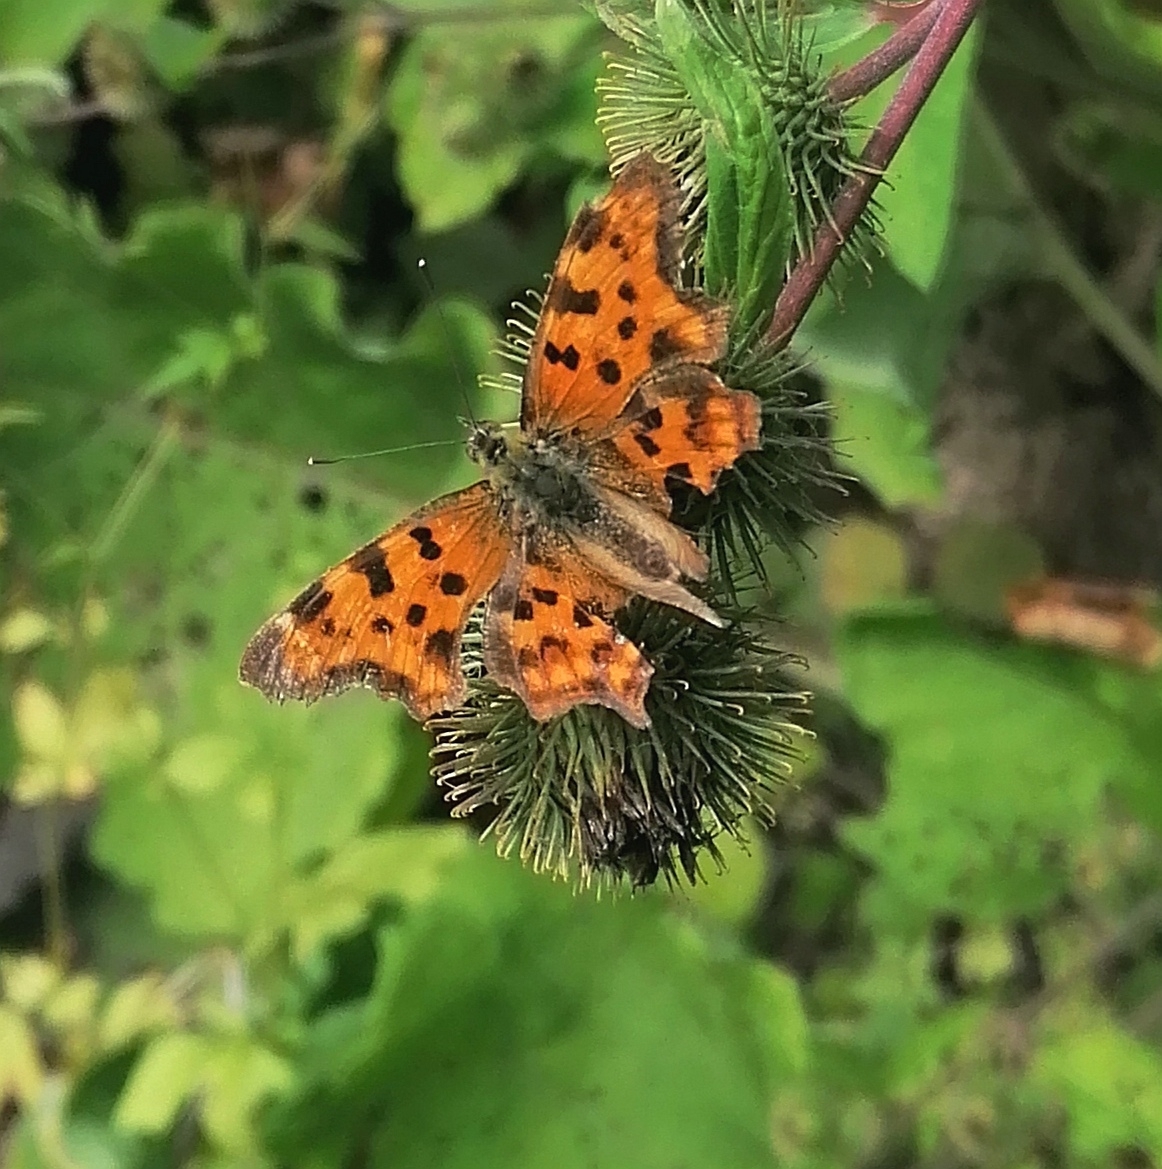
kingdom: Animalia
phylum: Arthropoda
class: Insecta
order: Lepidoptera
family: Nymphalidae
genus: Polygonia
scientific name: Polygonia c-album
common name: Comma
